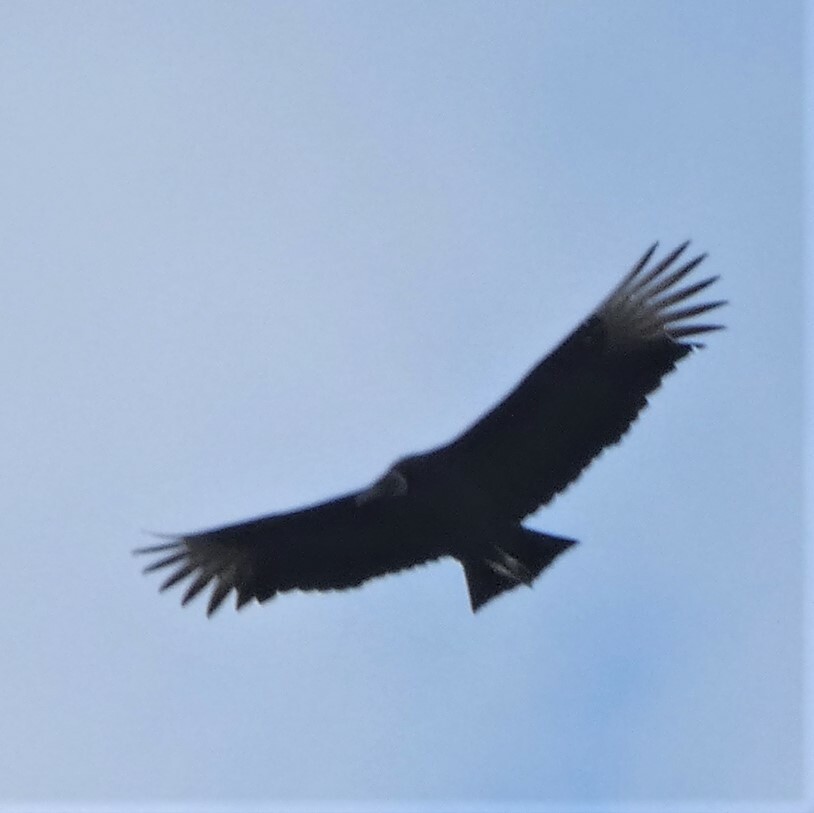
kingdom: Animalia
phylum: Chordata
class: Aves
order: Accipitriformes
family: Cathartidae
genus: Coragyps
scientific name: Coragyps atratus
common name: Black vulture
